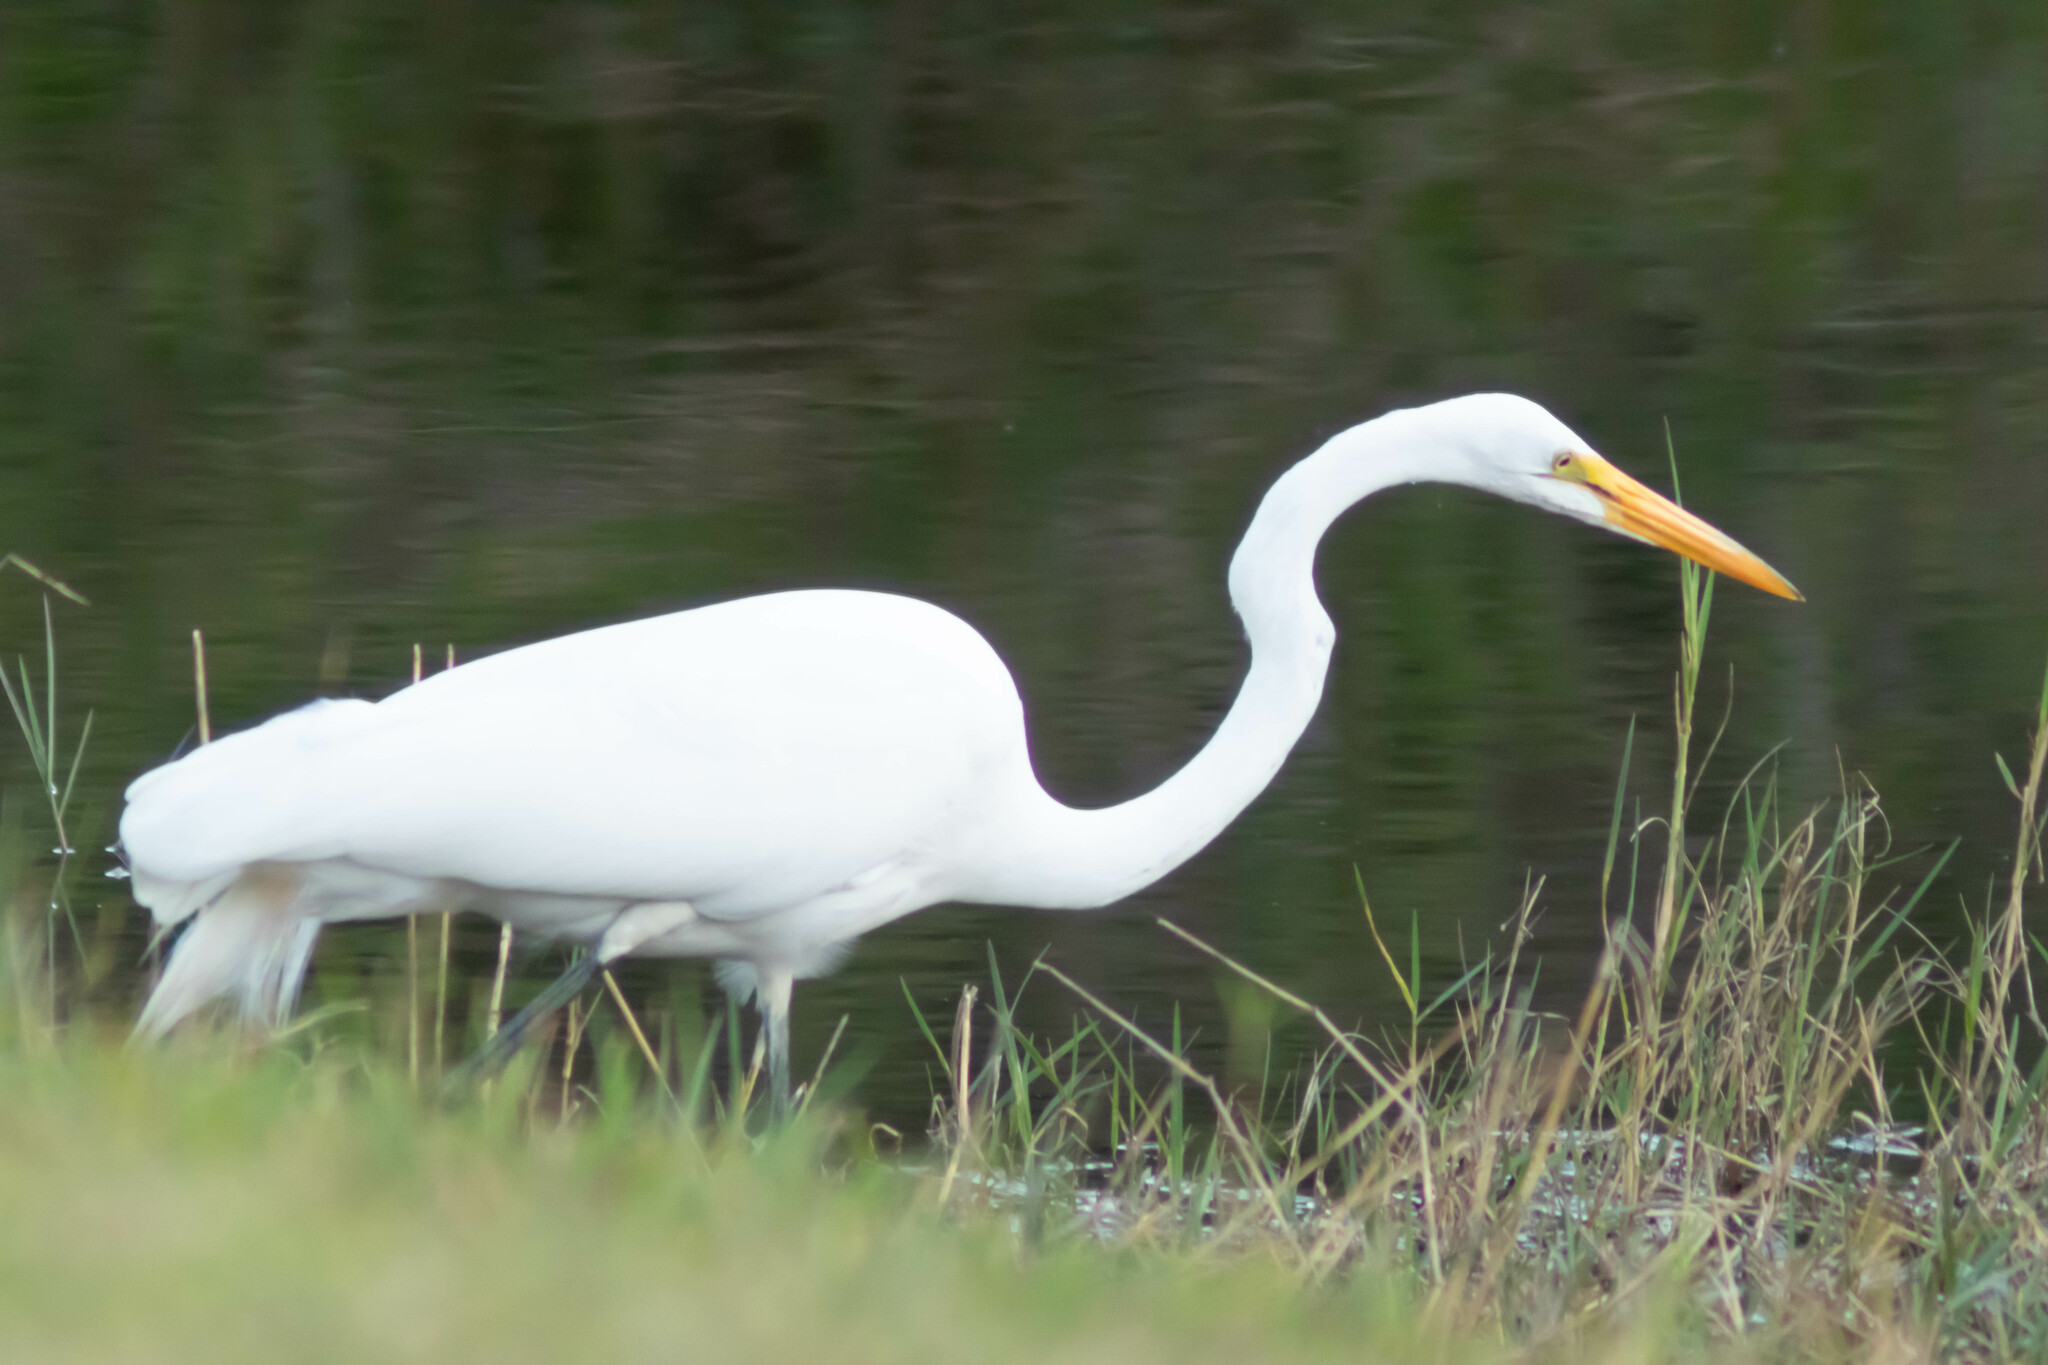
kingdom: Animalia
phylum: Chordata
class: Aves
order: Pelecaniformes
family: Ardeidae
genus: Ardea
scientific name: Ardea alba
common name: Great egret
